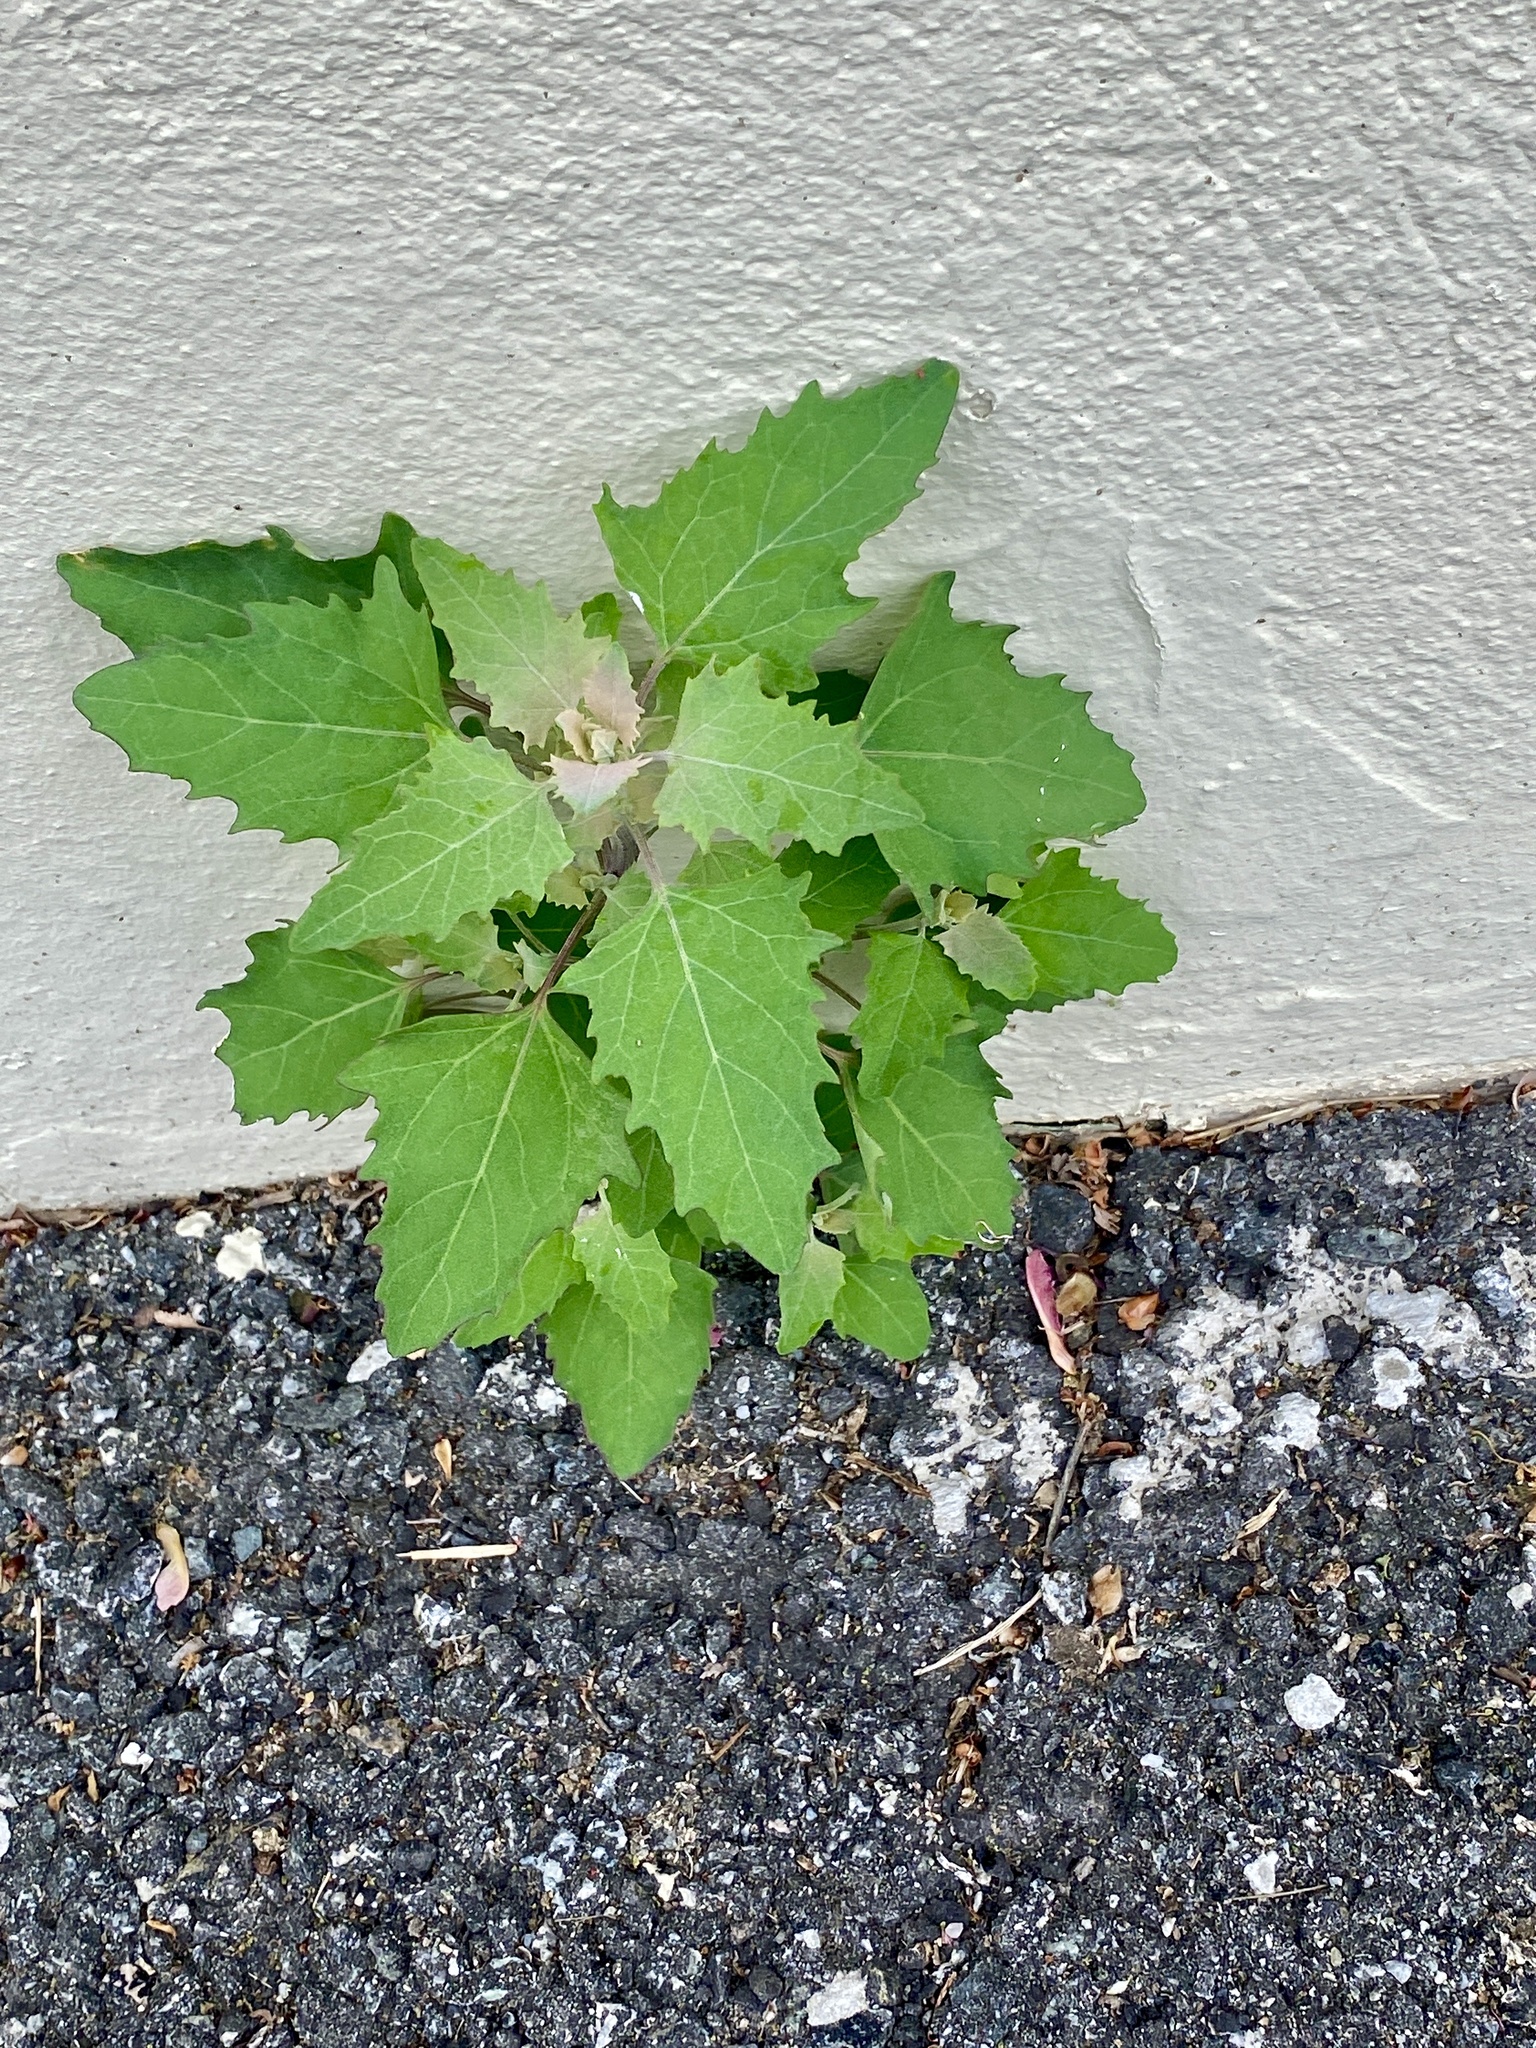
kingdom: Plantae
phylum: Tracheophyta
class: Magnoliopsida
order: Caryophyllales
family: Amaranthaceae
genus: Chenopodium
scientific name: Chenopodium album
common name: Fat-hen
